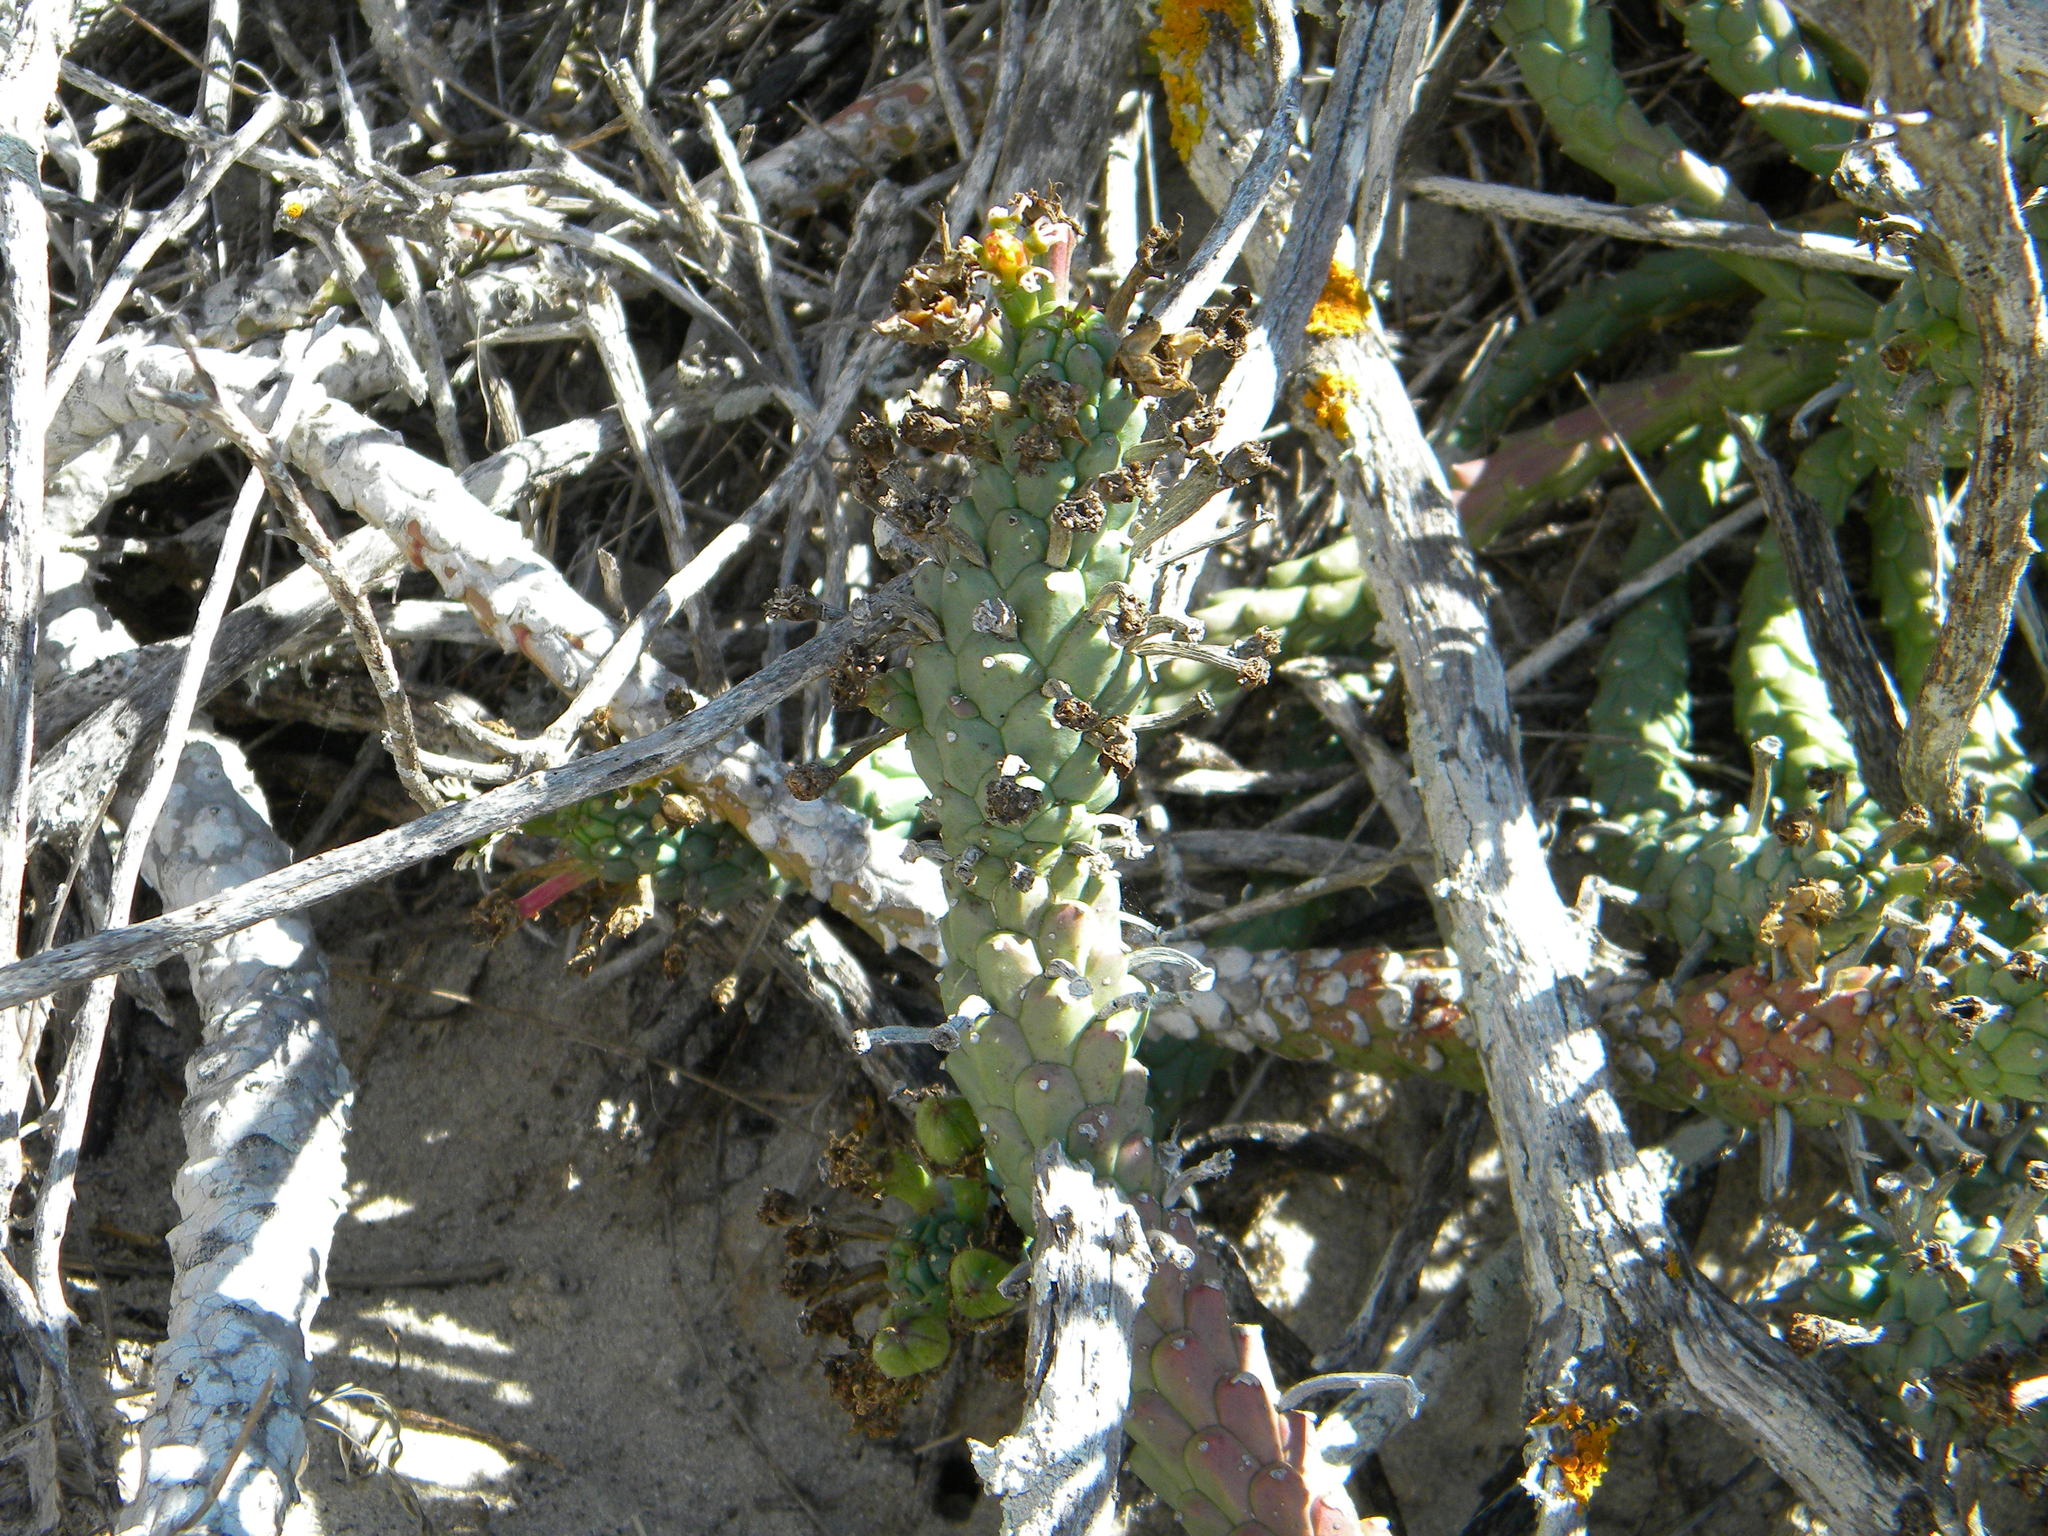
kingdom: Plantae
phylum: Tracheophyta
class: Magnoliopsida
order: Malpighiales
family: Euphorbiaceae
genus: Euphorbia
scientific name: Euphorbia caput-medusae
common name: Medusa's-head
